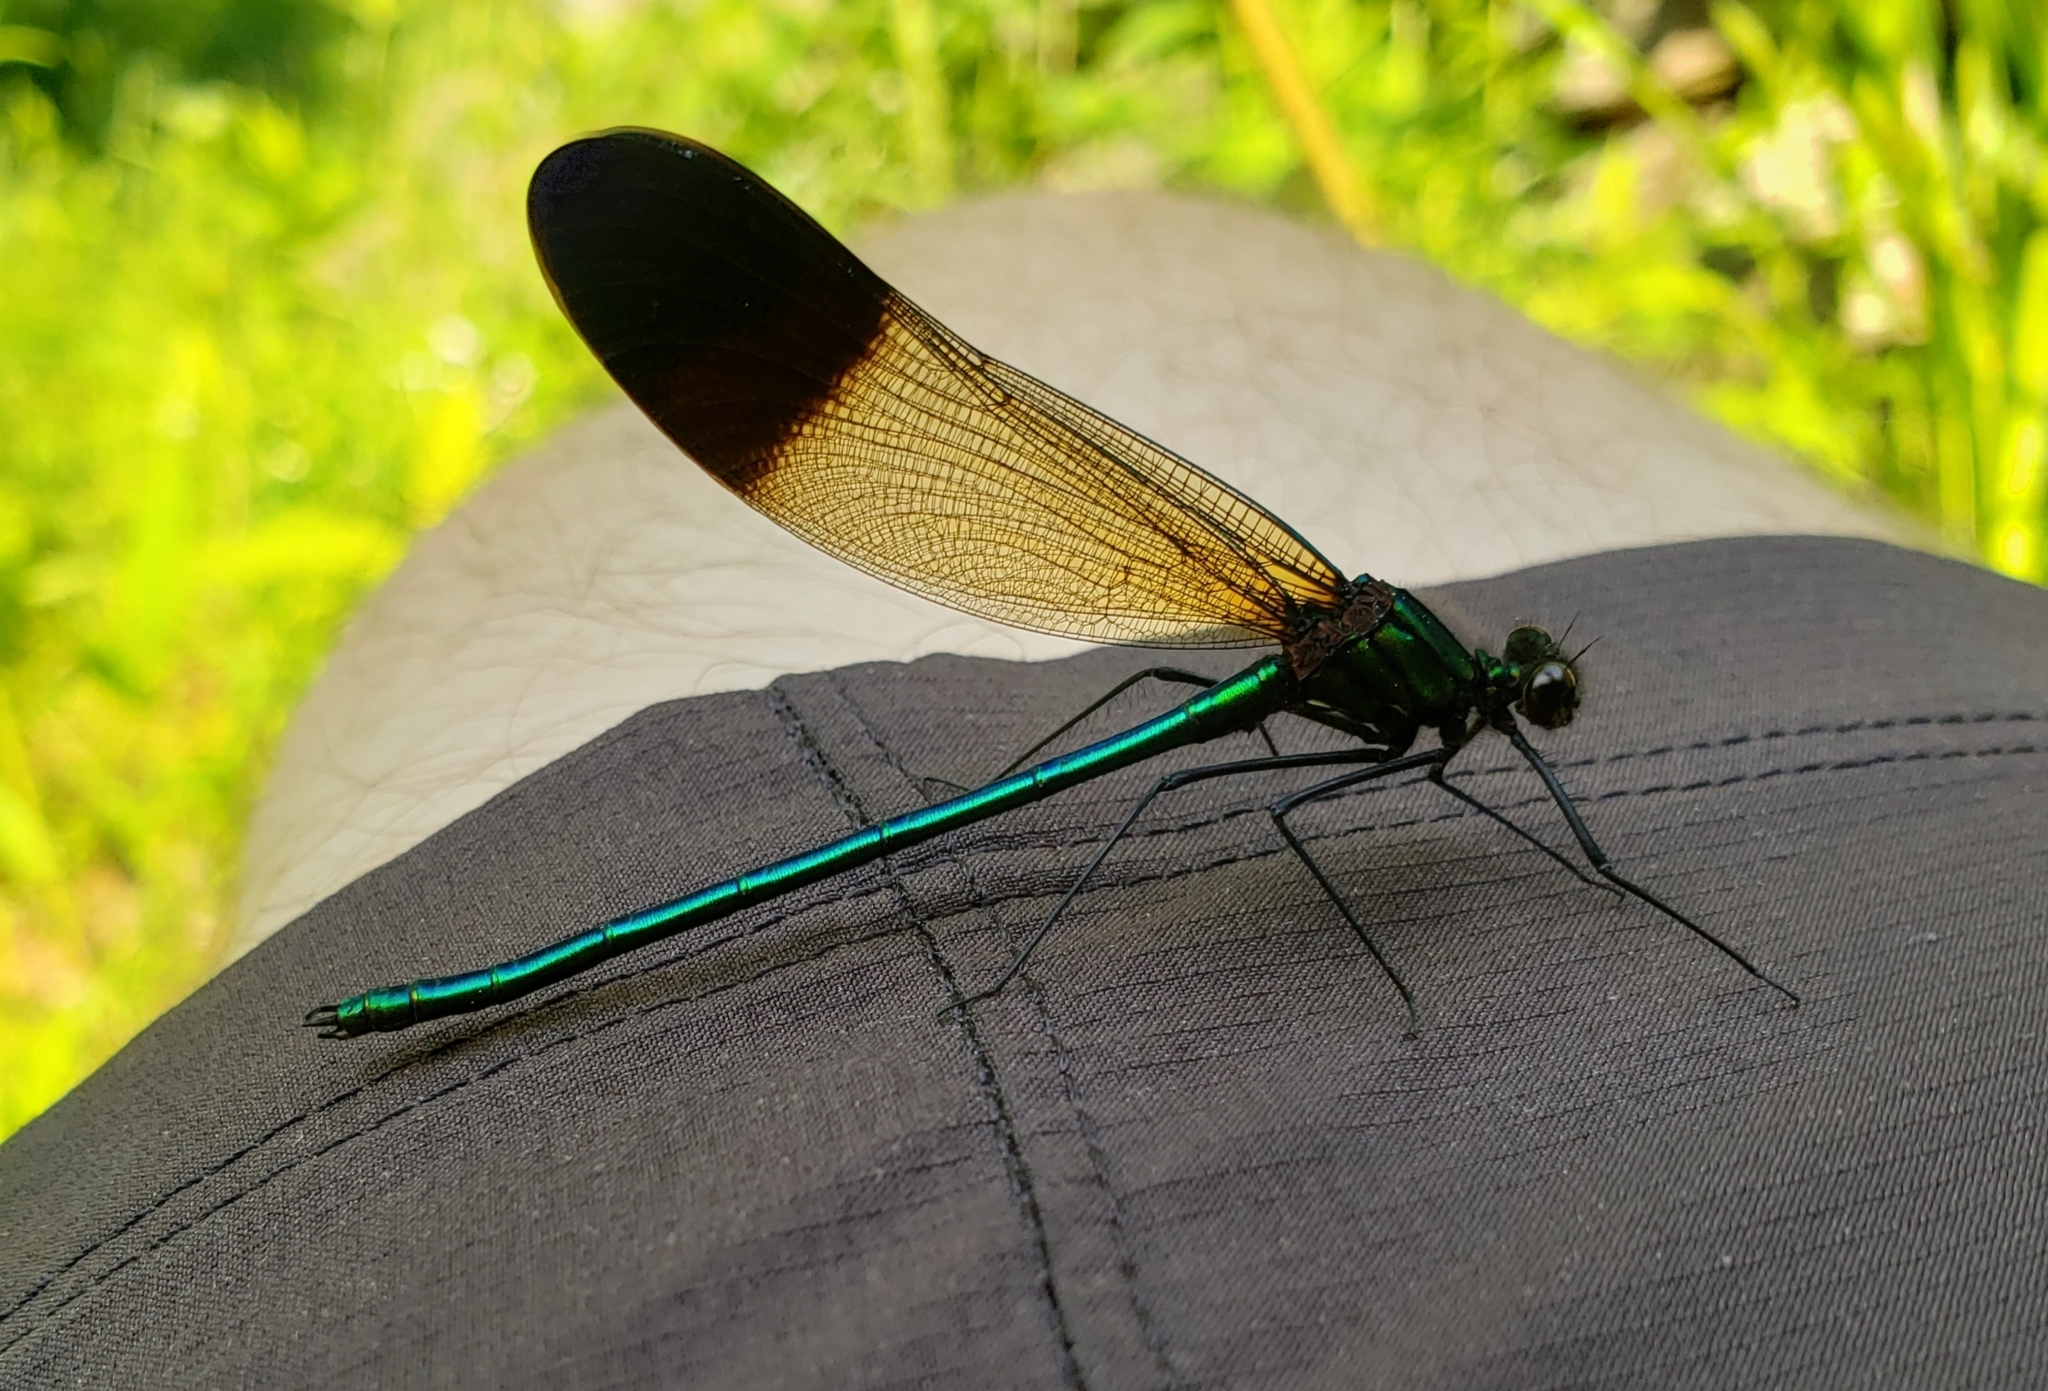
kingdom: Animalia
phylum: Arthropoda
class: Insecta
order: Odonata
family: Calopterygidae
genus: Calopteryx
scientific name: Calopteryx aequabilis
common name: River jewelwing
